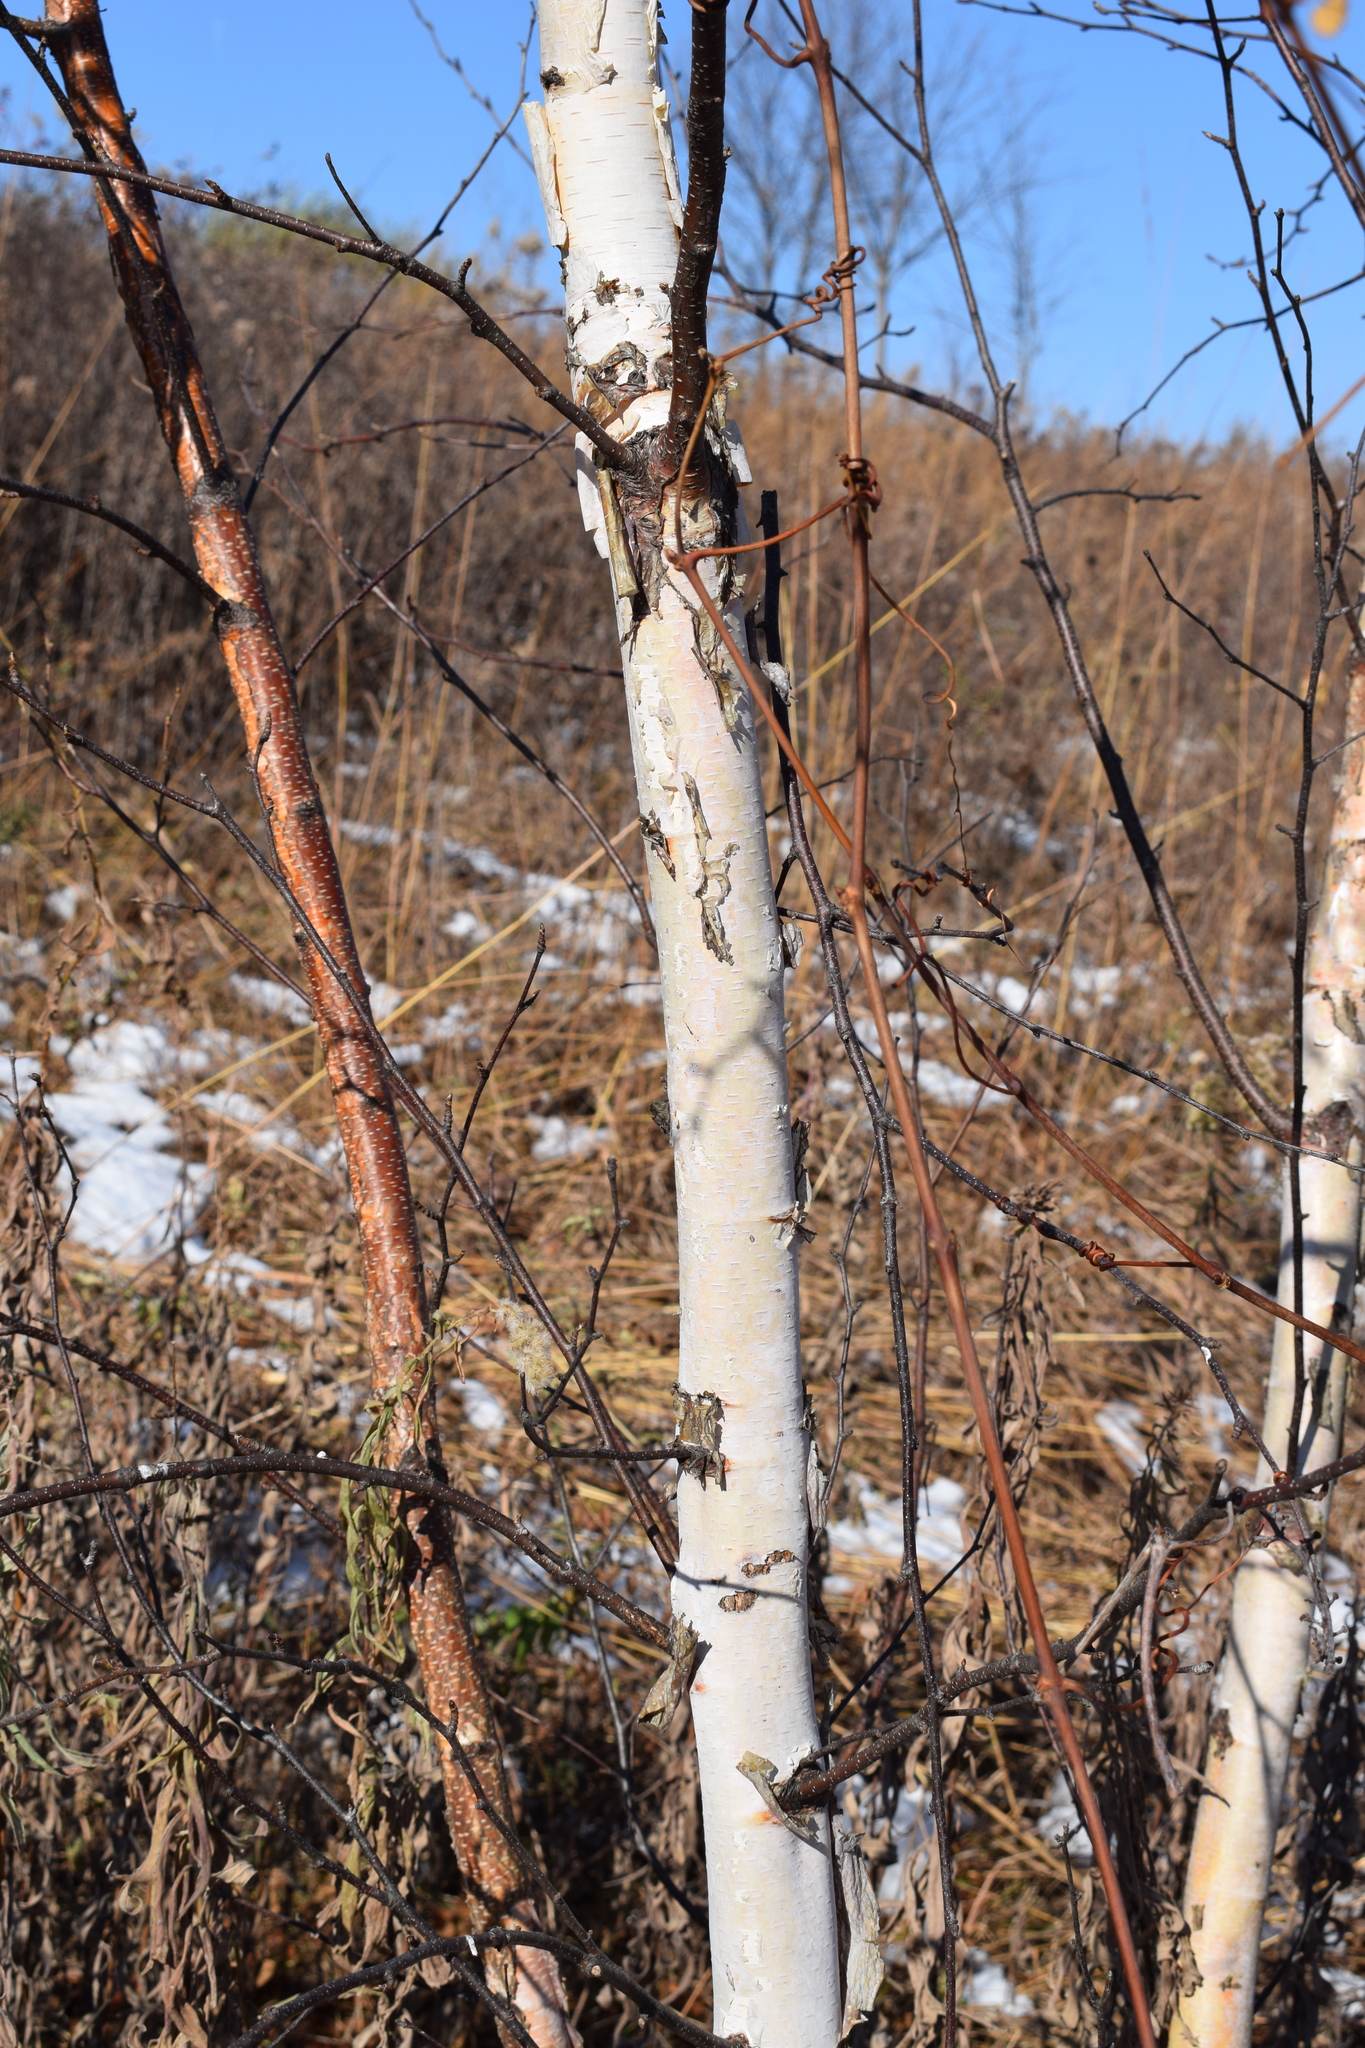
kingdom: Plantae
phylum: Tracheophyta
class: Magnoliopsida
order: Fagales
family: Betulaceae
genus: Betula
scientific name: Betula papyrifera
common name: Paper birch
